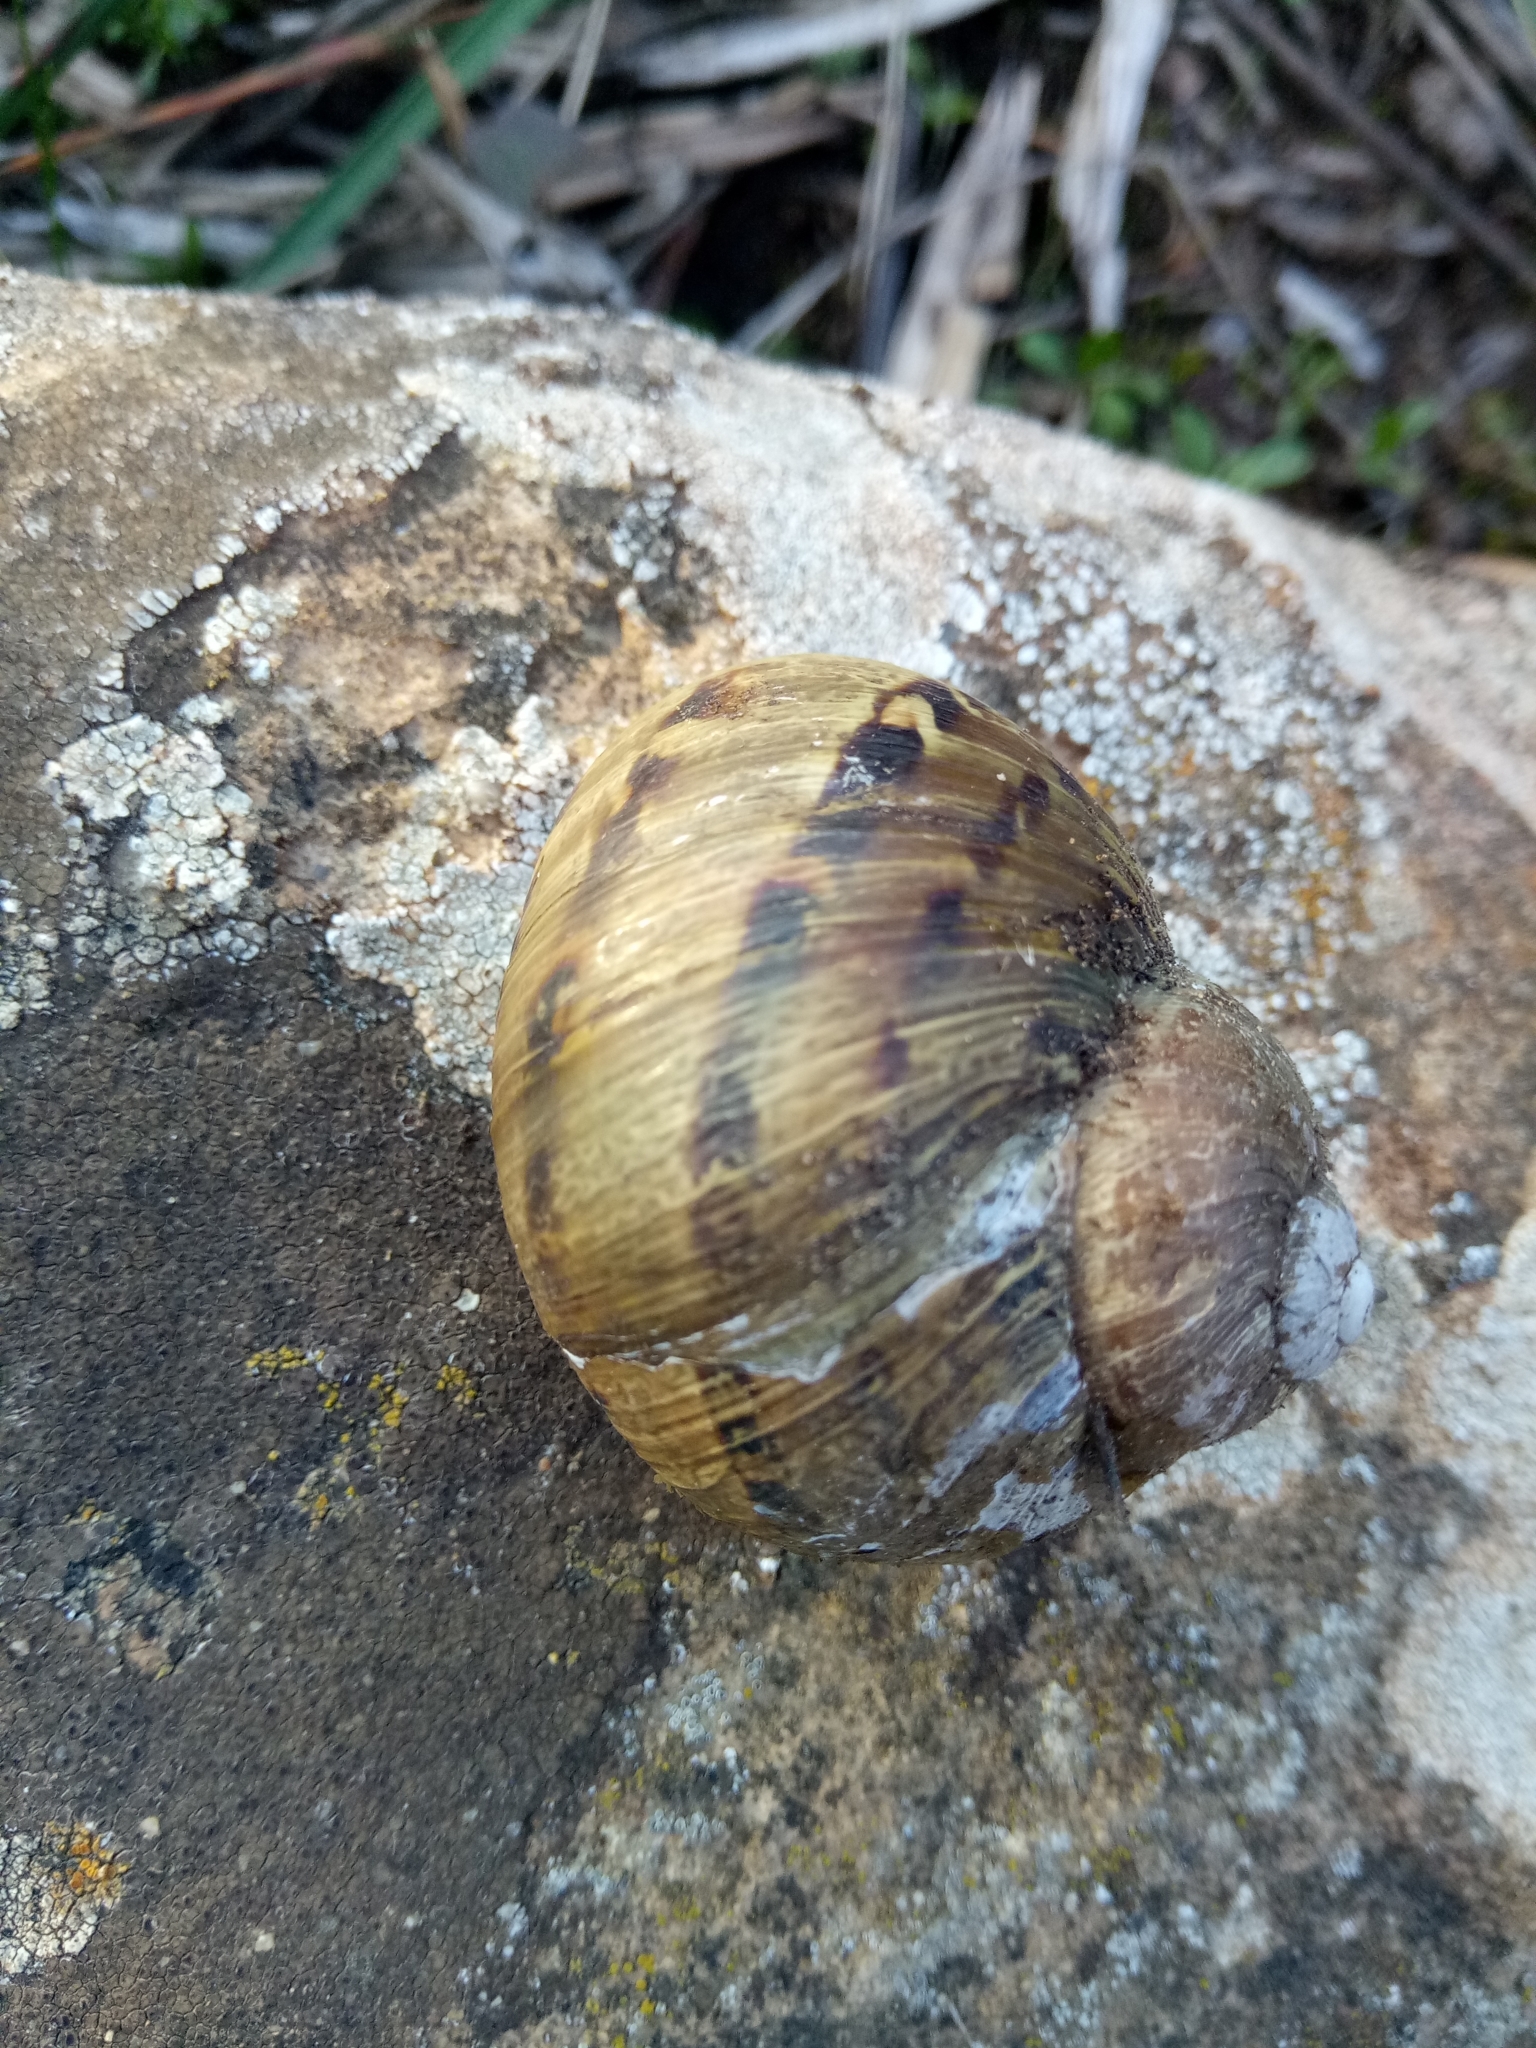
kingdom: Animalia
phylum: Mollusca
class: Gastropoda
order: Stylommatophora
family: Helicidae
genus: Cornu
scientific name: Cornu aspersum
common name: Brown garden snail
